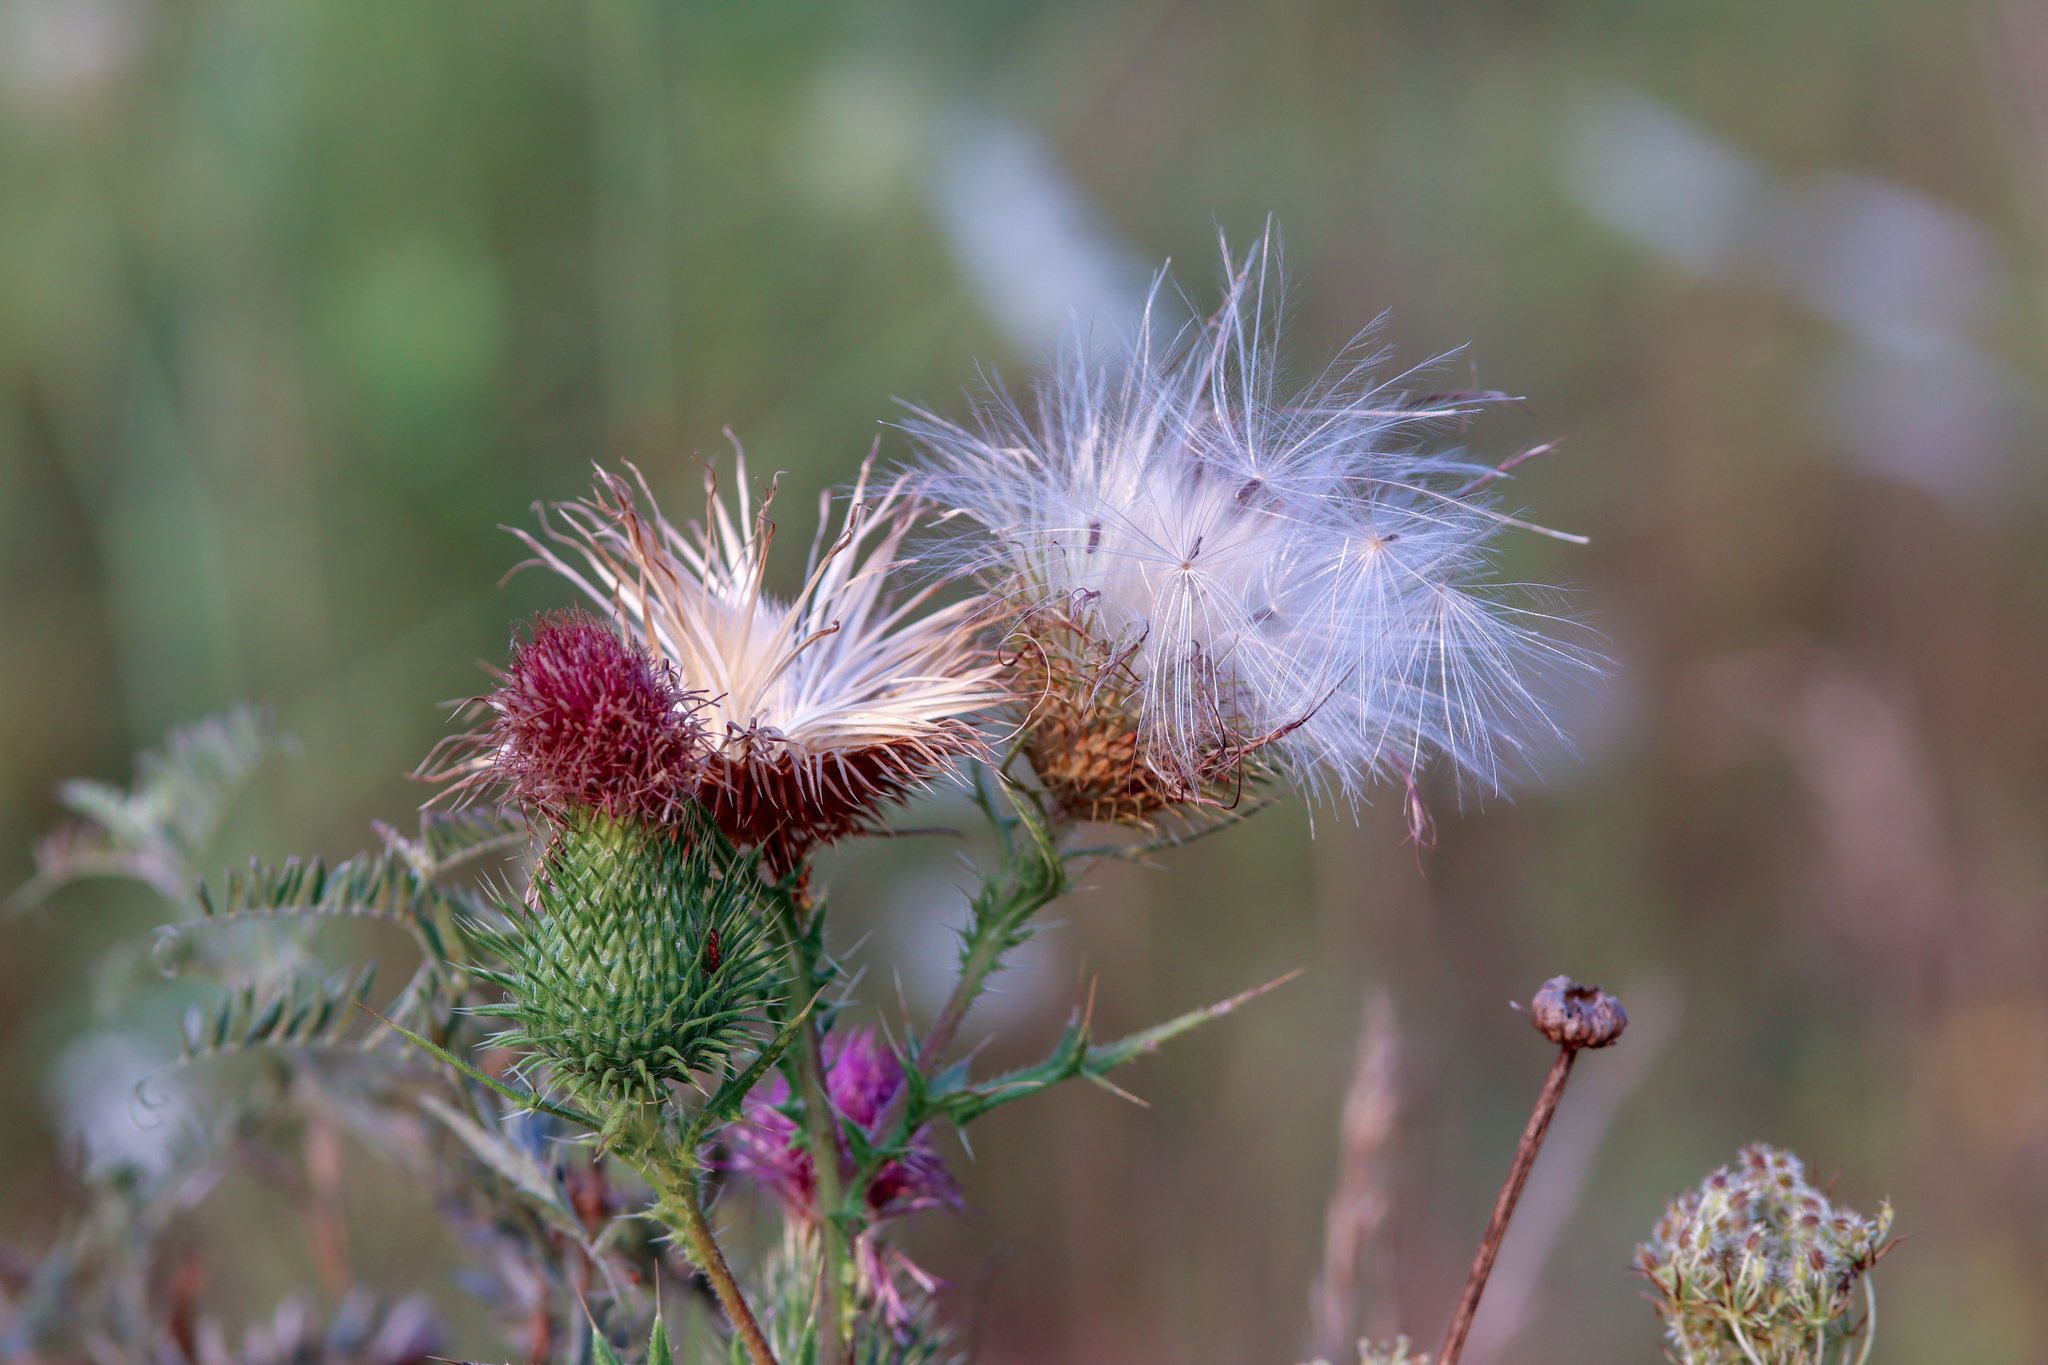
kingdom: Plantae
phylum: Tracheophyta
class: Magnoliopsida
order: Asterales
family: Asteraceae
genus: Cirsium
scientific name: Cirsium vulgare
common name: Bull thistle
